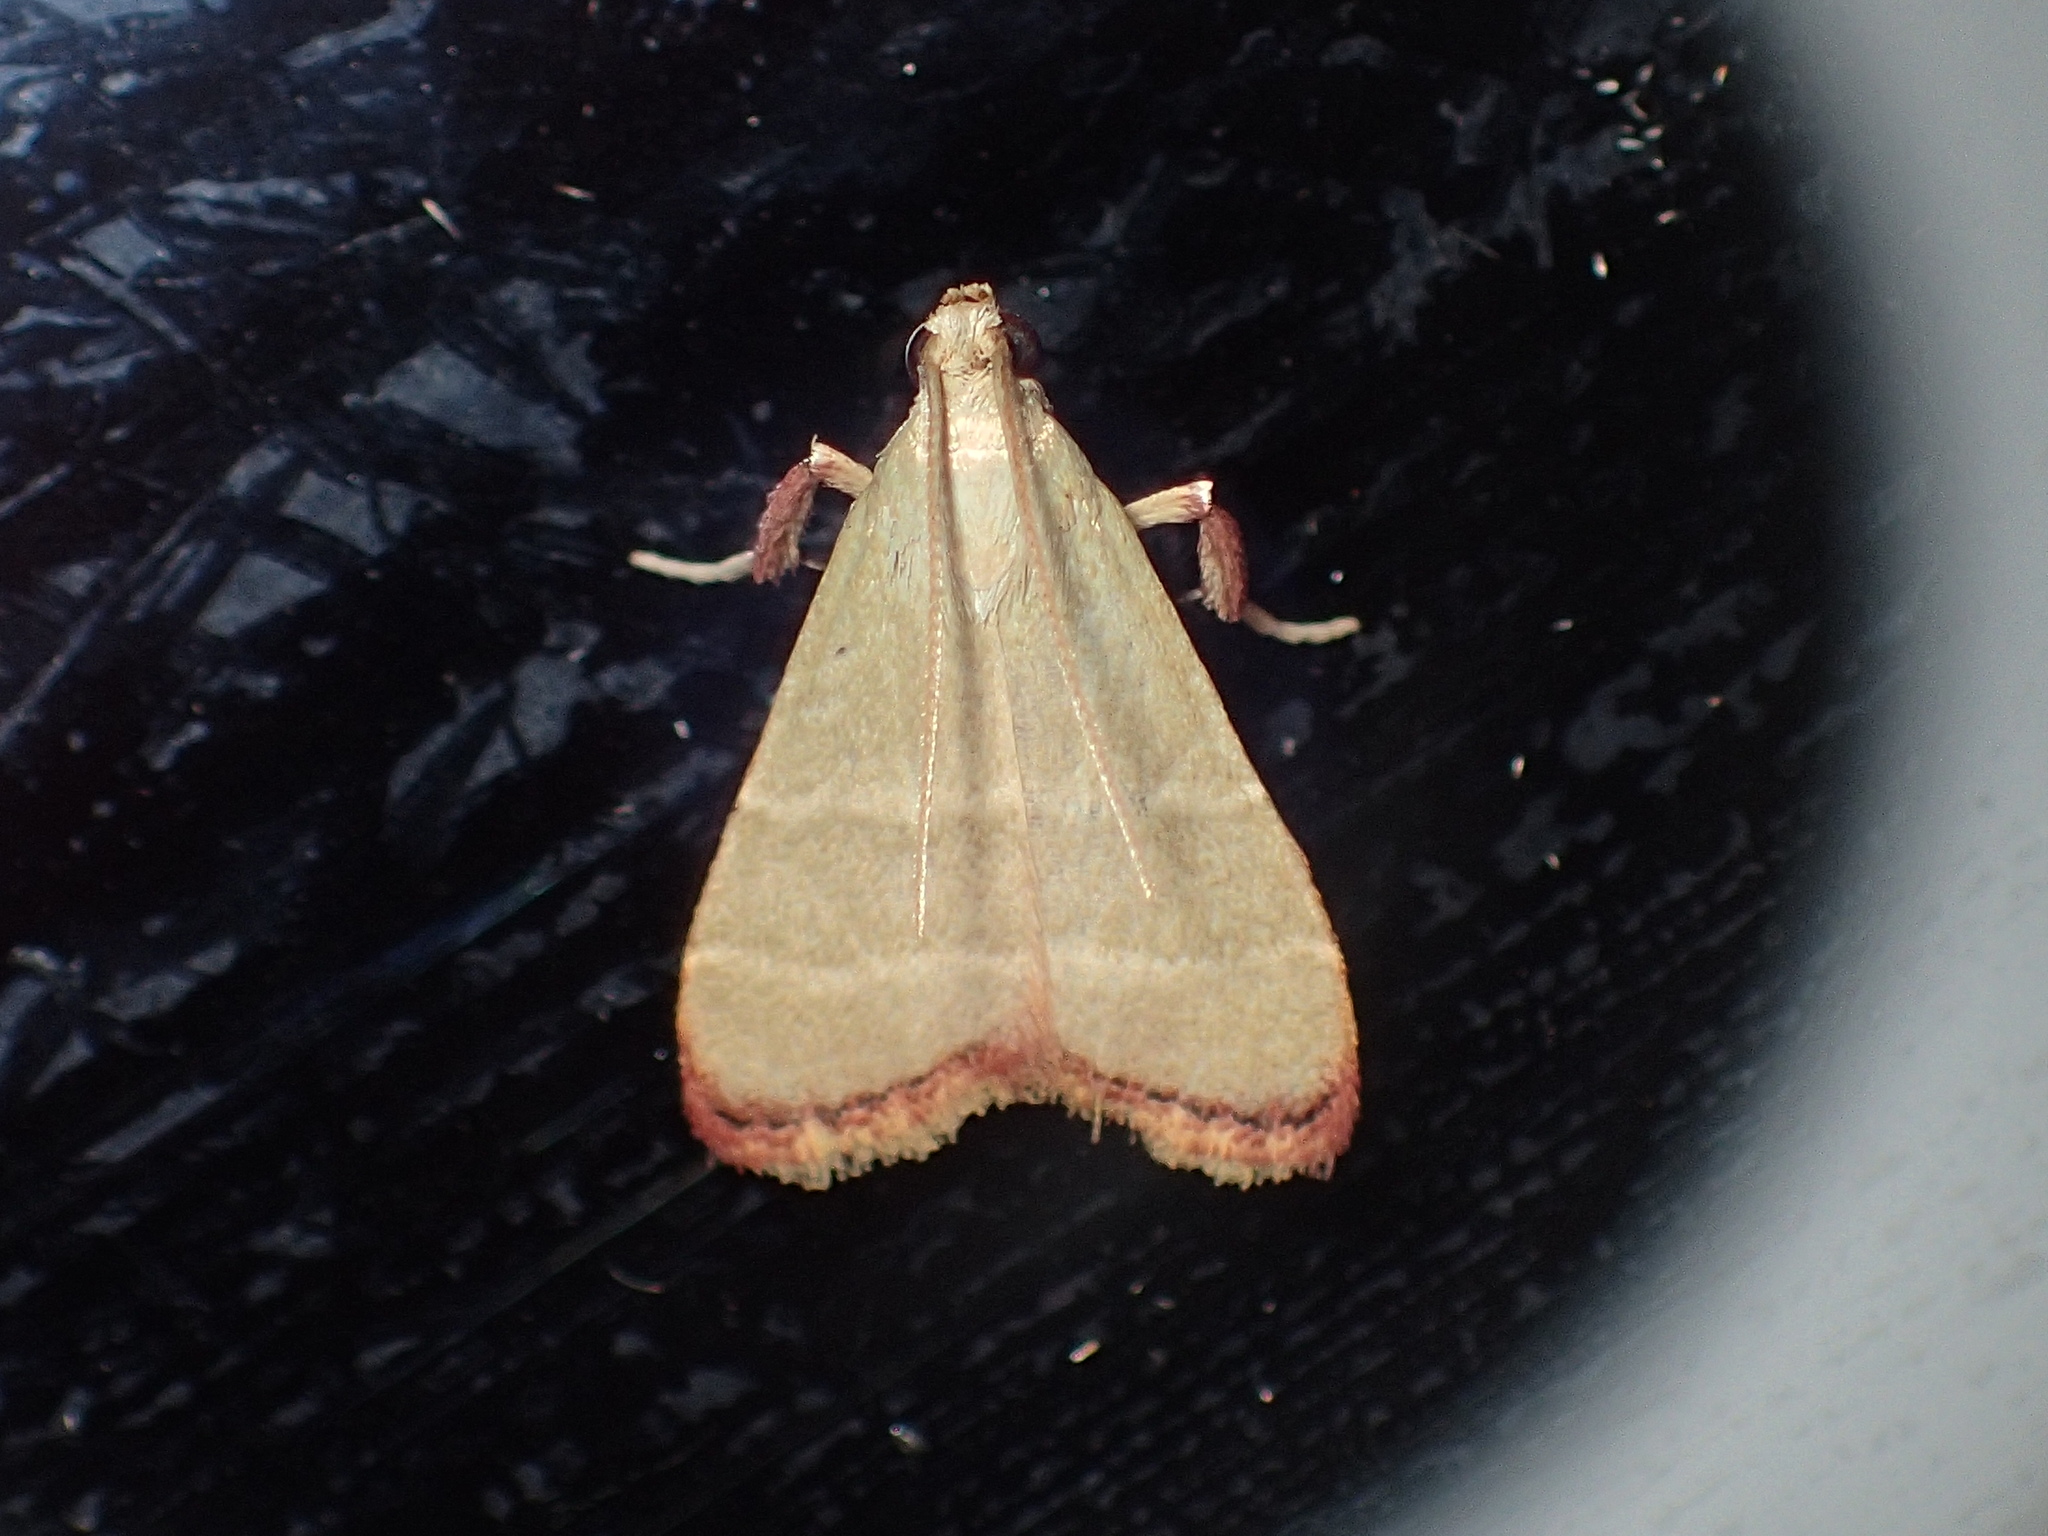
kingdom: Animalia
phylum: Arthropoda
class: Insecta
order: Lepidoptera
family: Pyralidae
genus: Arta
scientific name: Arta olivalis
